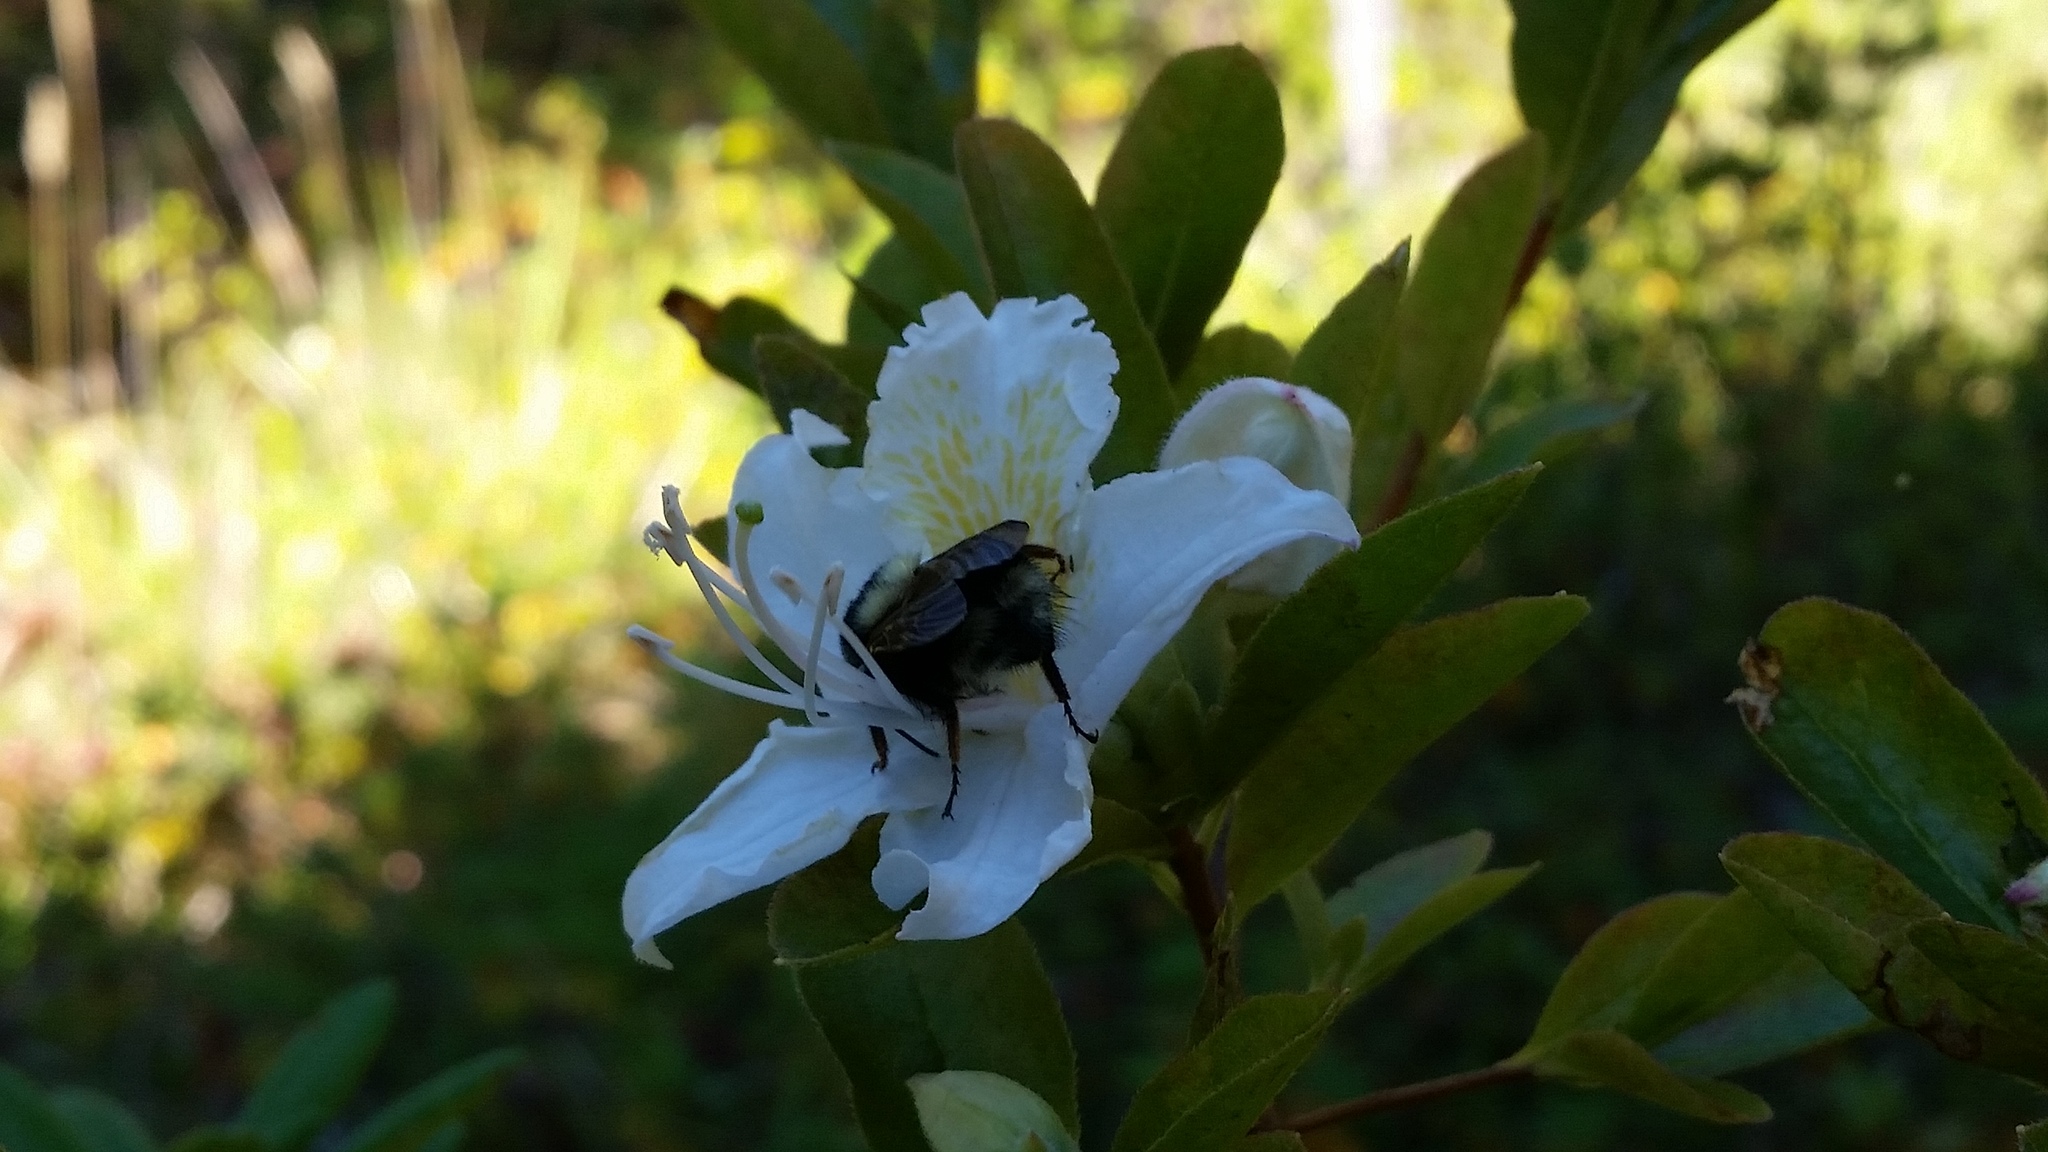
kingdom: Plantae
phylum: Tracheophyta
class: Magnoliopsida
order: Ericales
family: Ericaceae
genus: Rhododendron
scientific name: Rhododendron occidentale
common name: Western azalea
